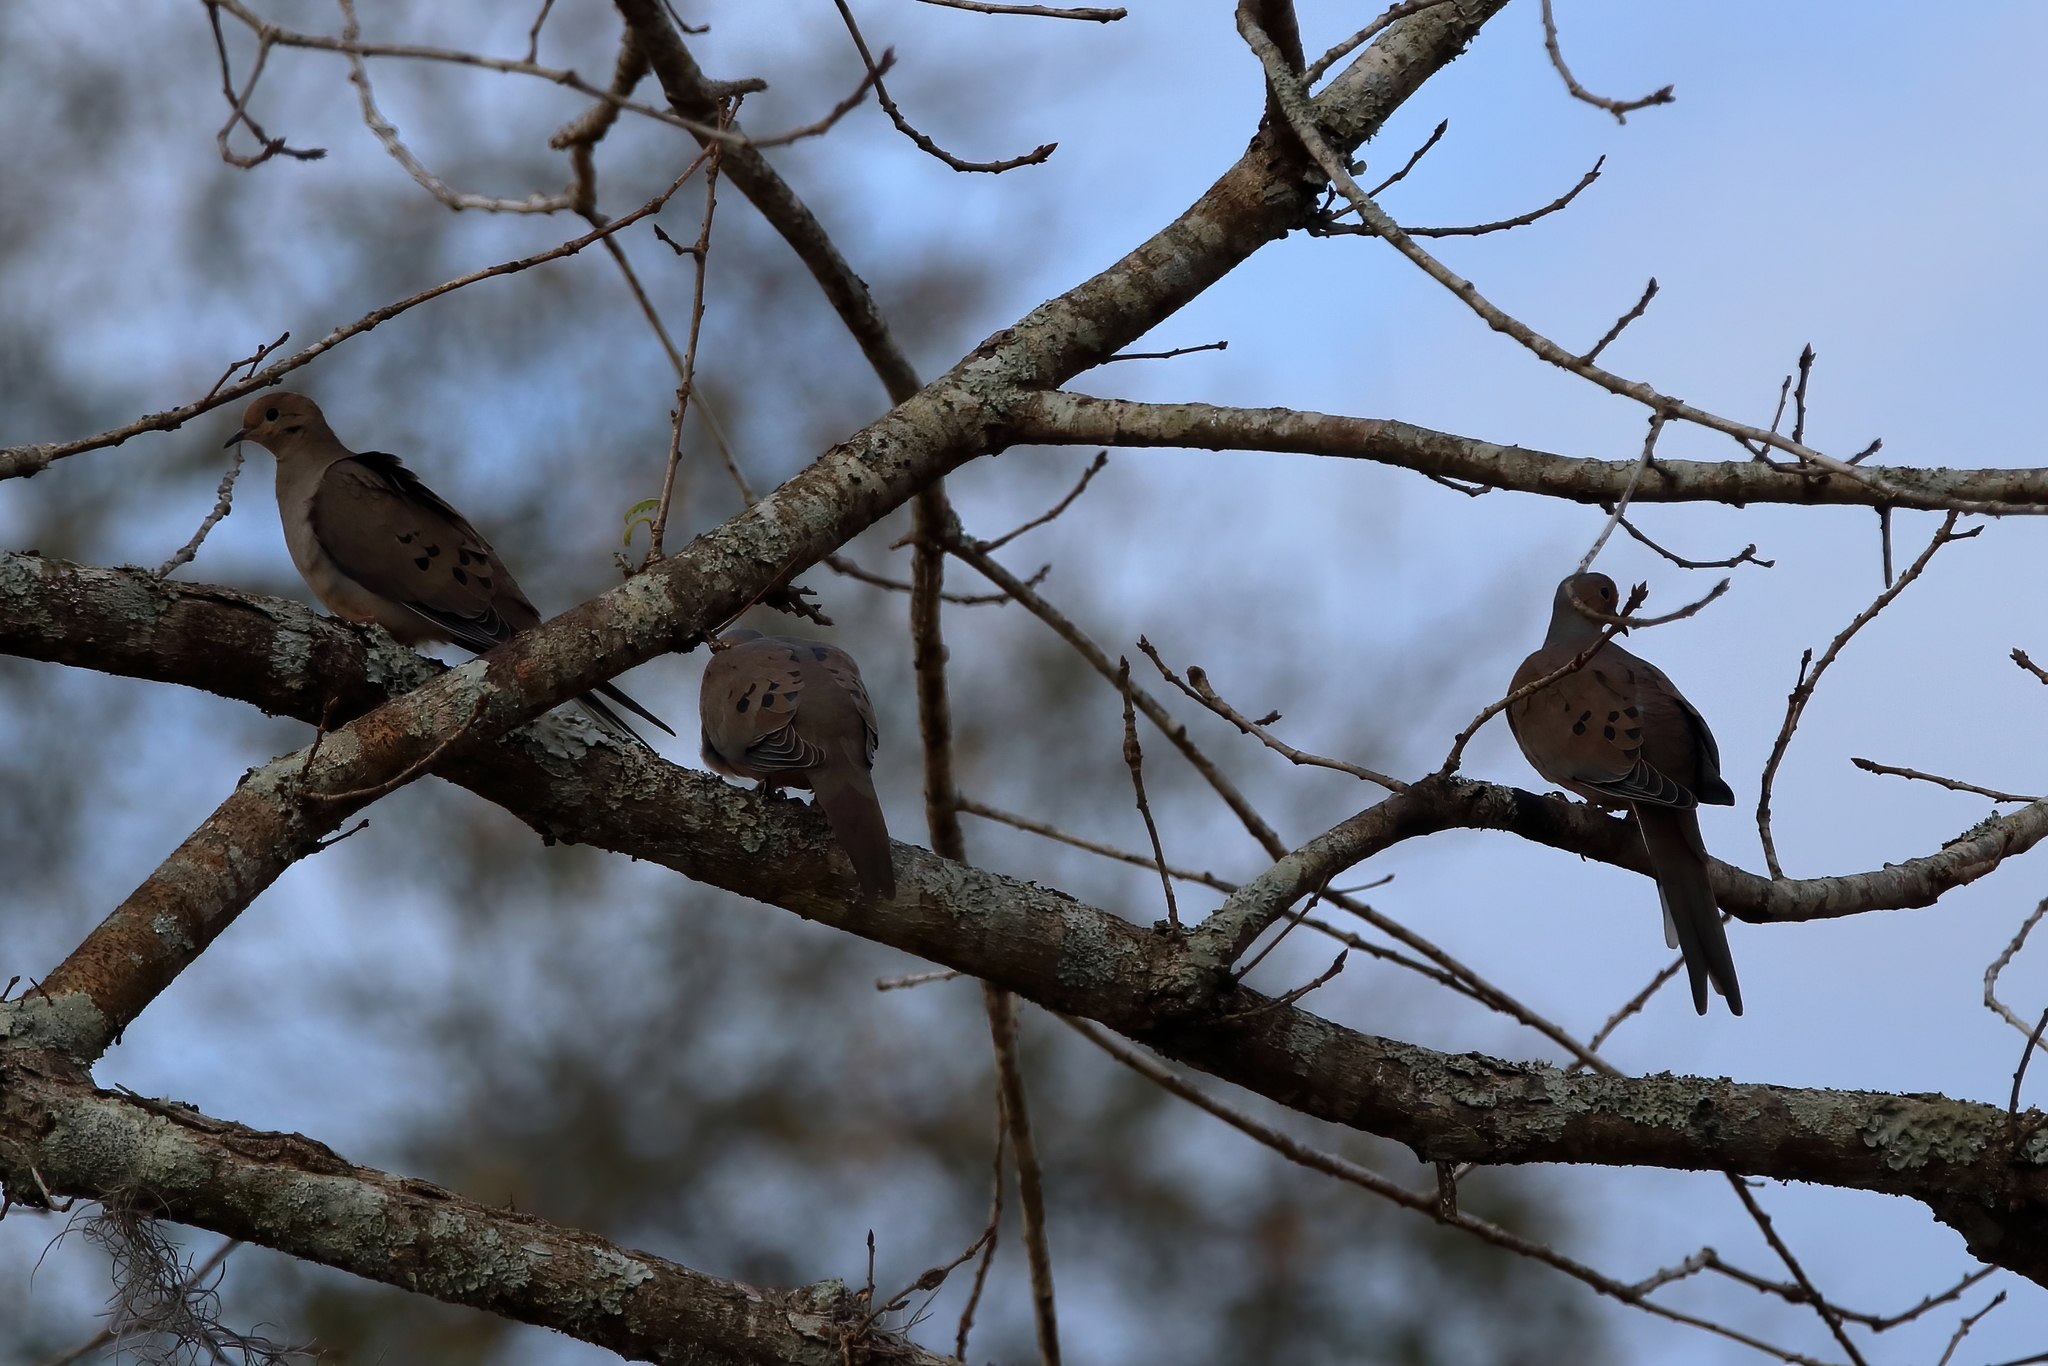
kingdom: Animalia
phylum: Chordata
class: Aves
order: Columbiformes
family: Columbidae
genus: Zenaida
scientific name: Zenaida macroura
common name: Mourning dove
